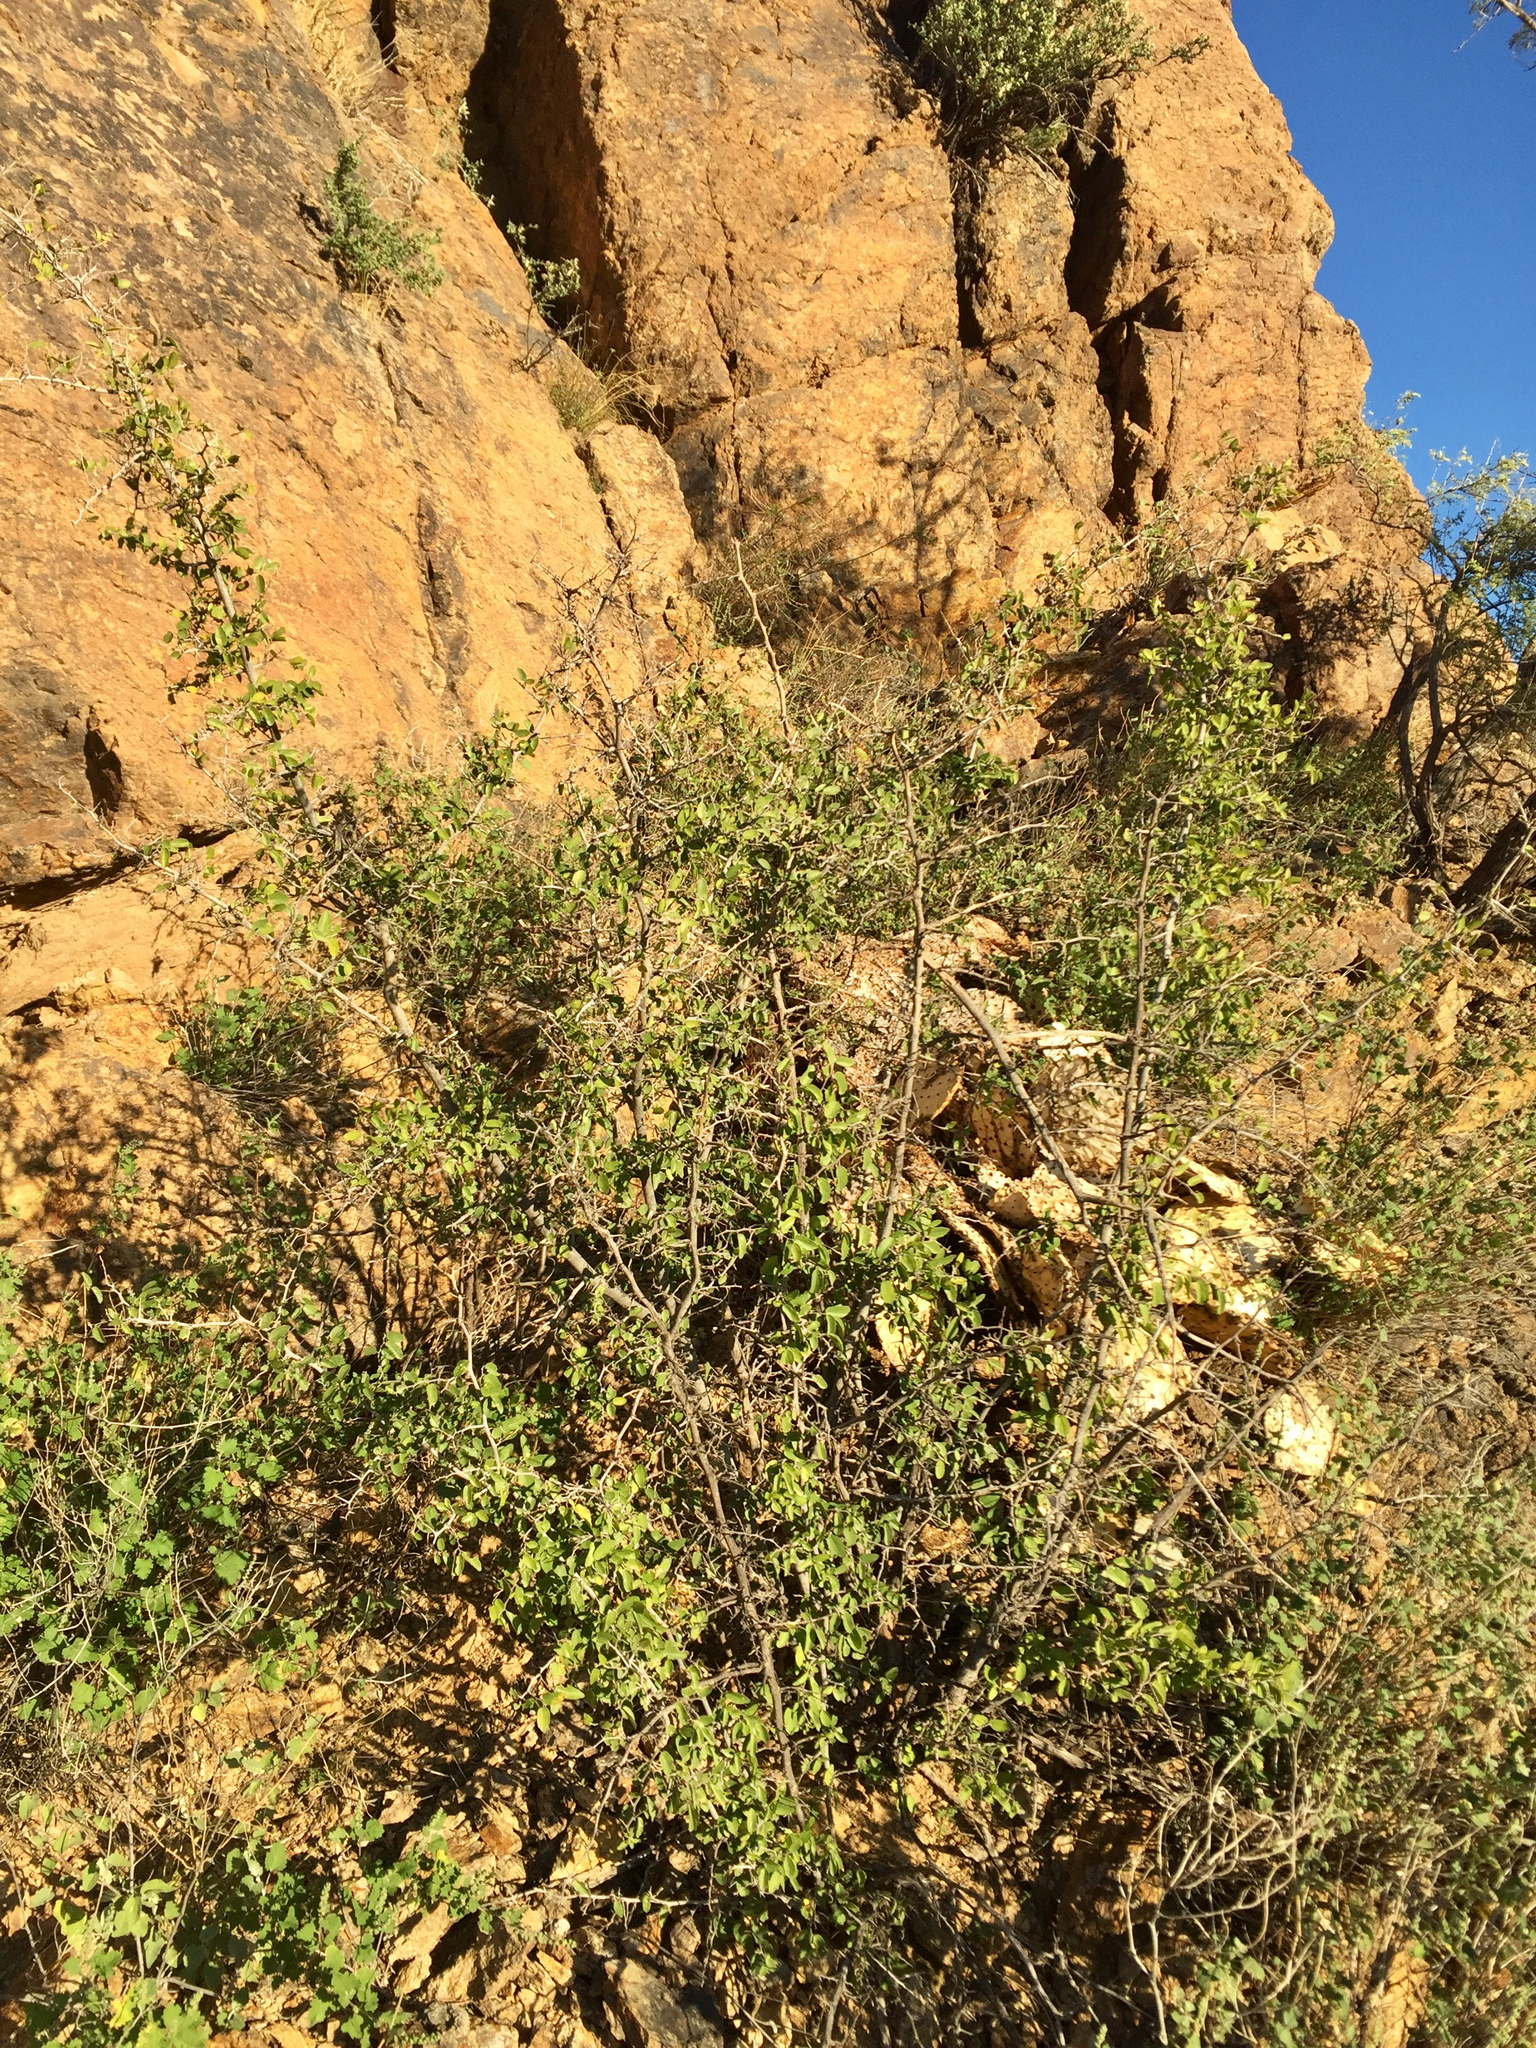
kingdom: Plantae
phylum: Tracheophyta
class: Magnoliopsida
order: Rosales
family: Cannabaceae
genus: Celtis
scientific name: Celtis pallida
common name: Desert hackberry
